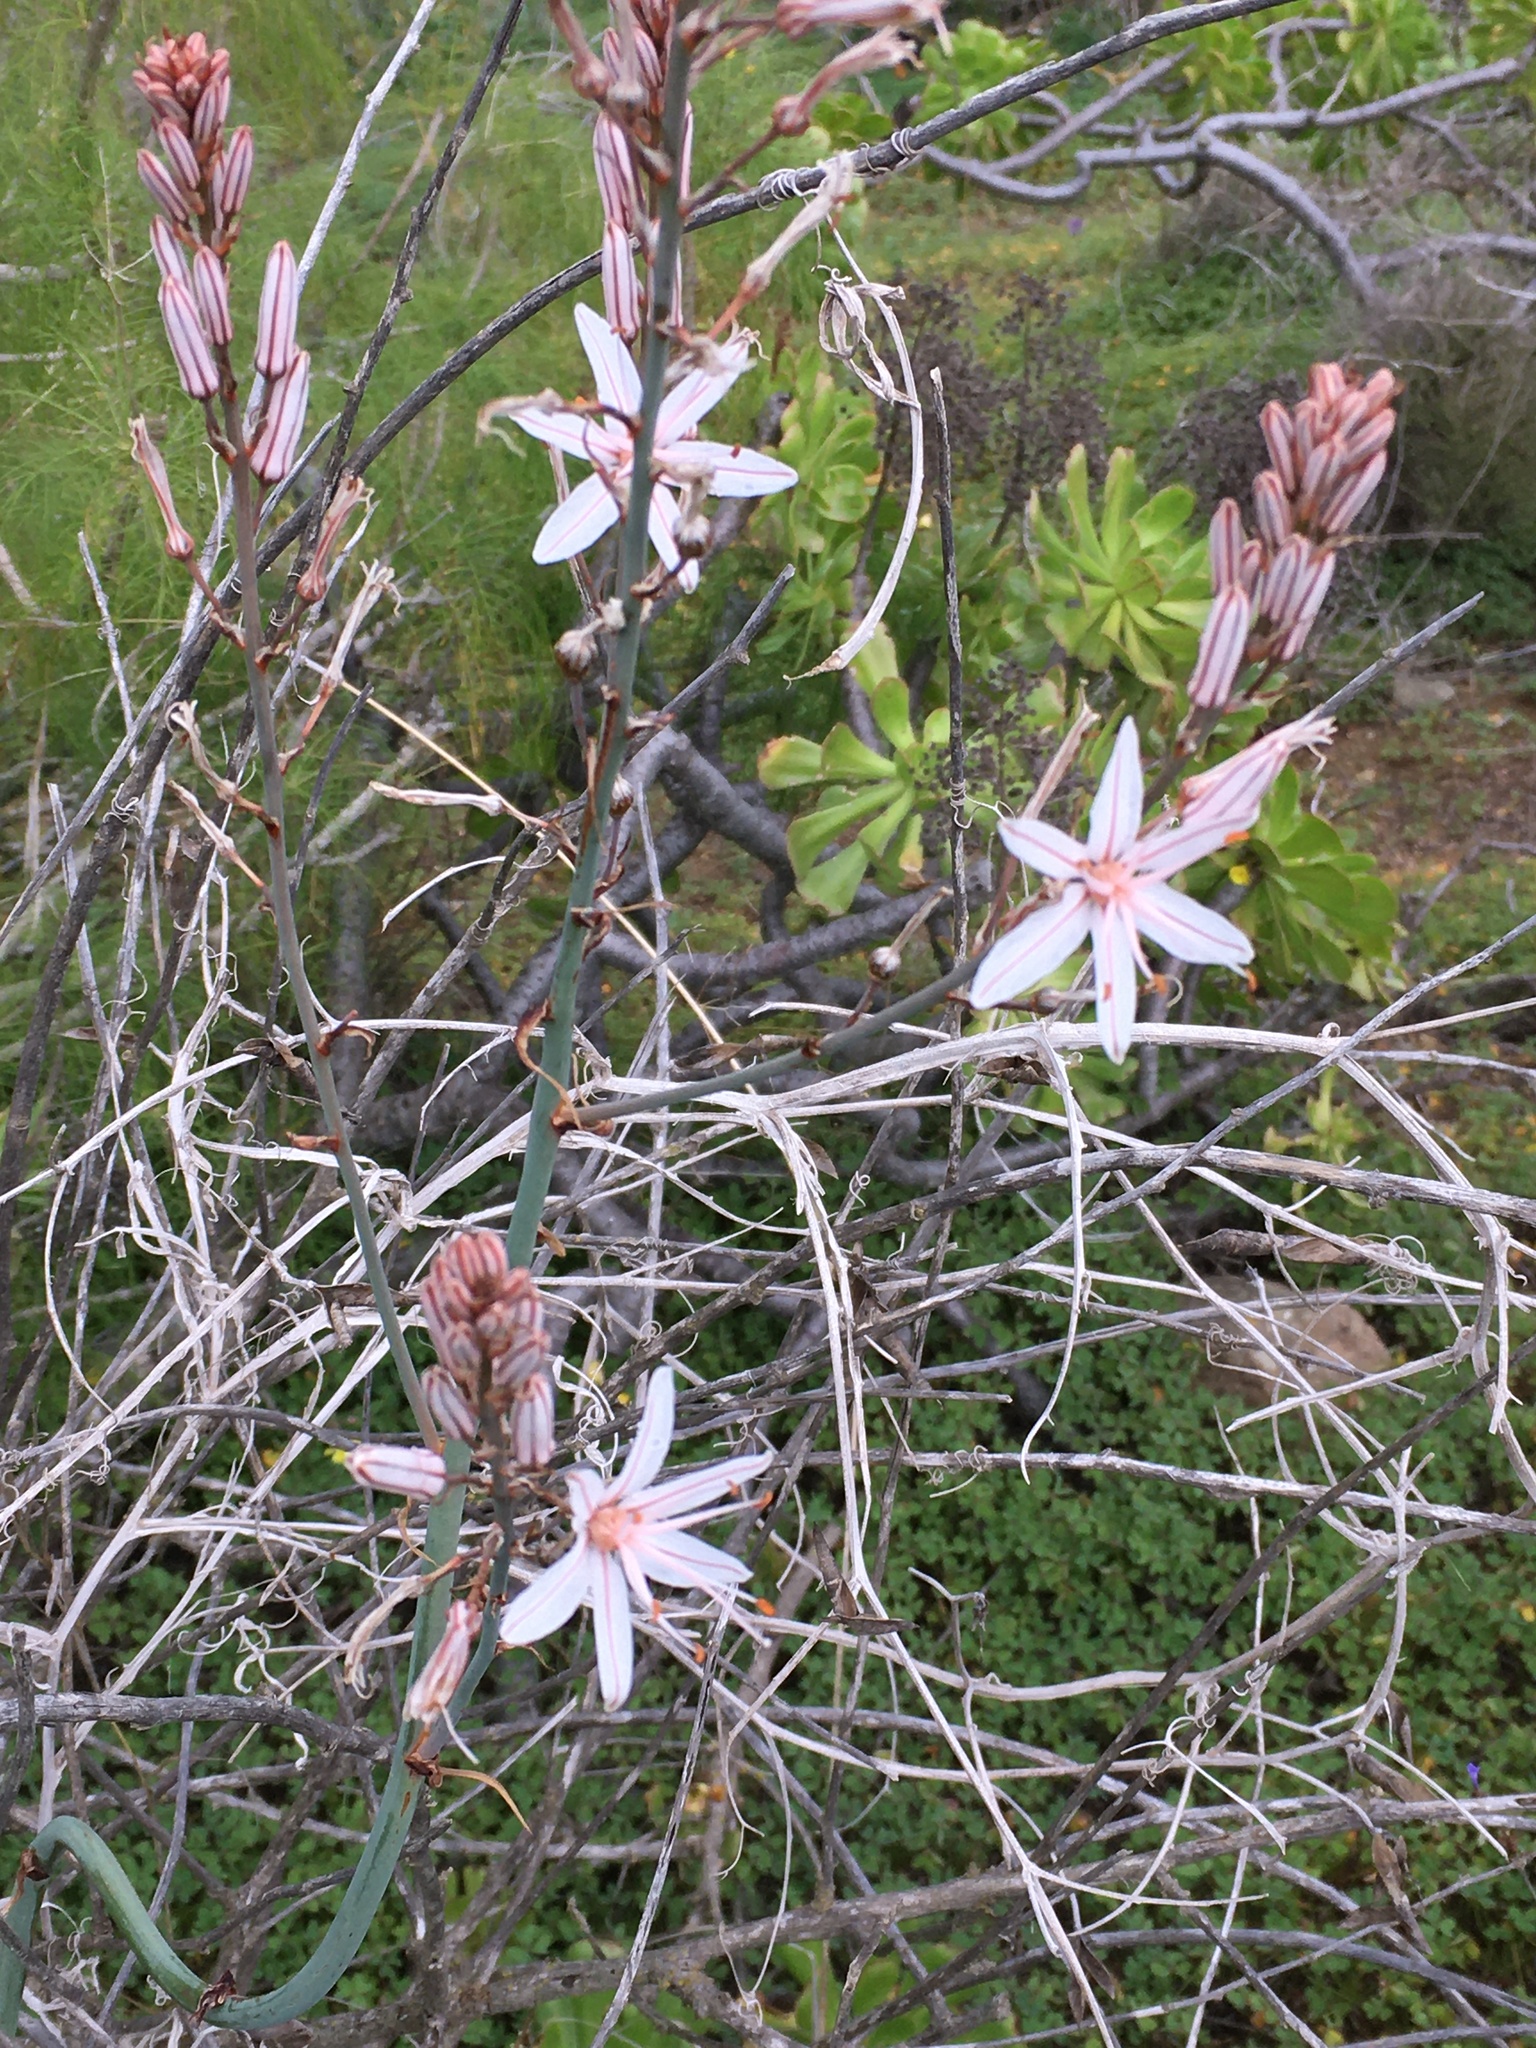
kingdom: Plantae
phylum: Tracheophyta
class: Liliopsida
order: Asparagales
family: Asphodelaceae
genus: Asphodelus
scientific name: Asphodelus ramosus
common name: Silverrod
